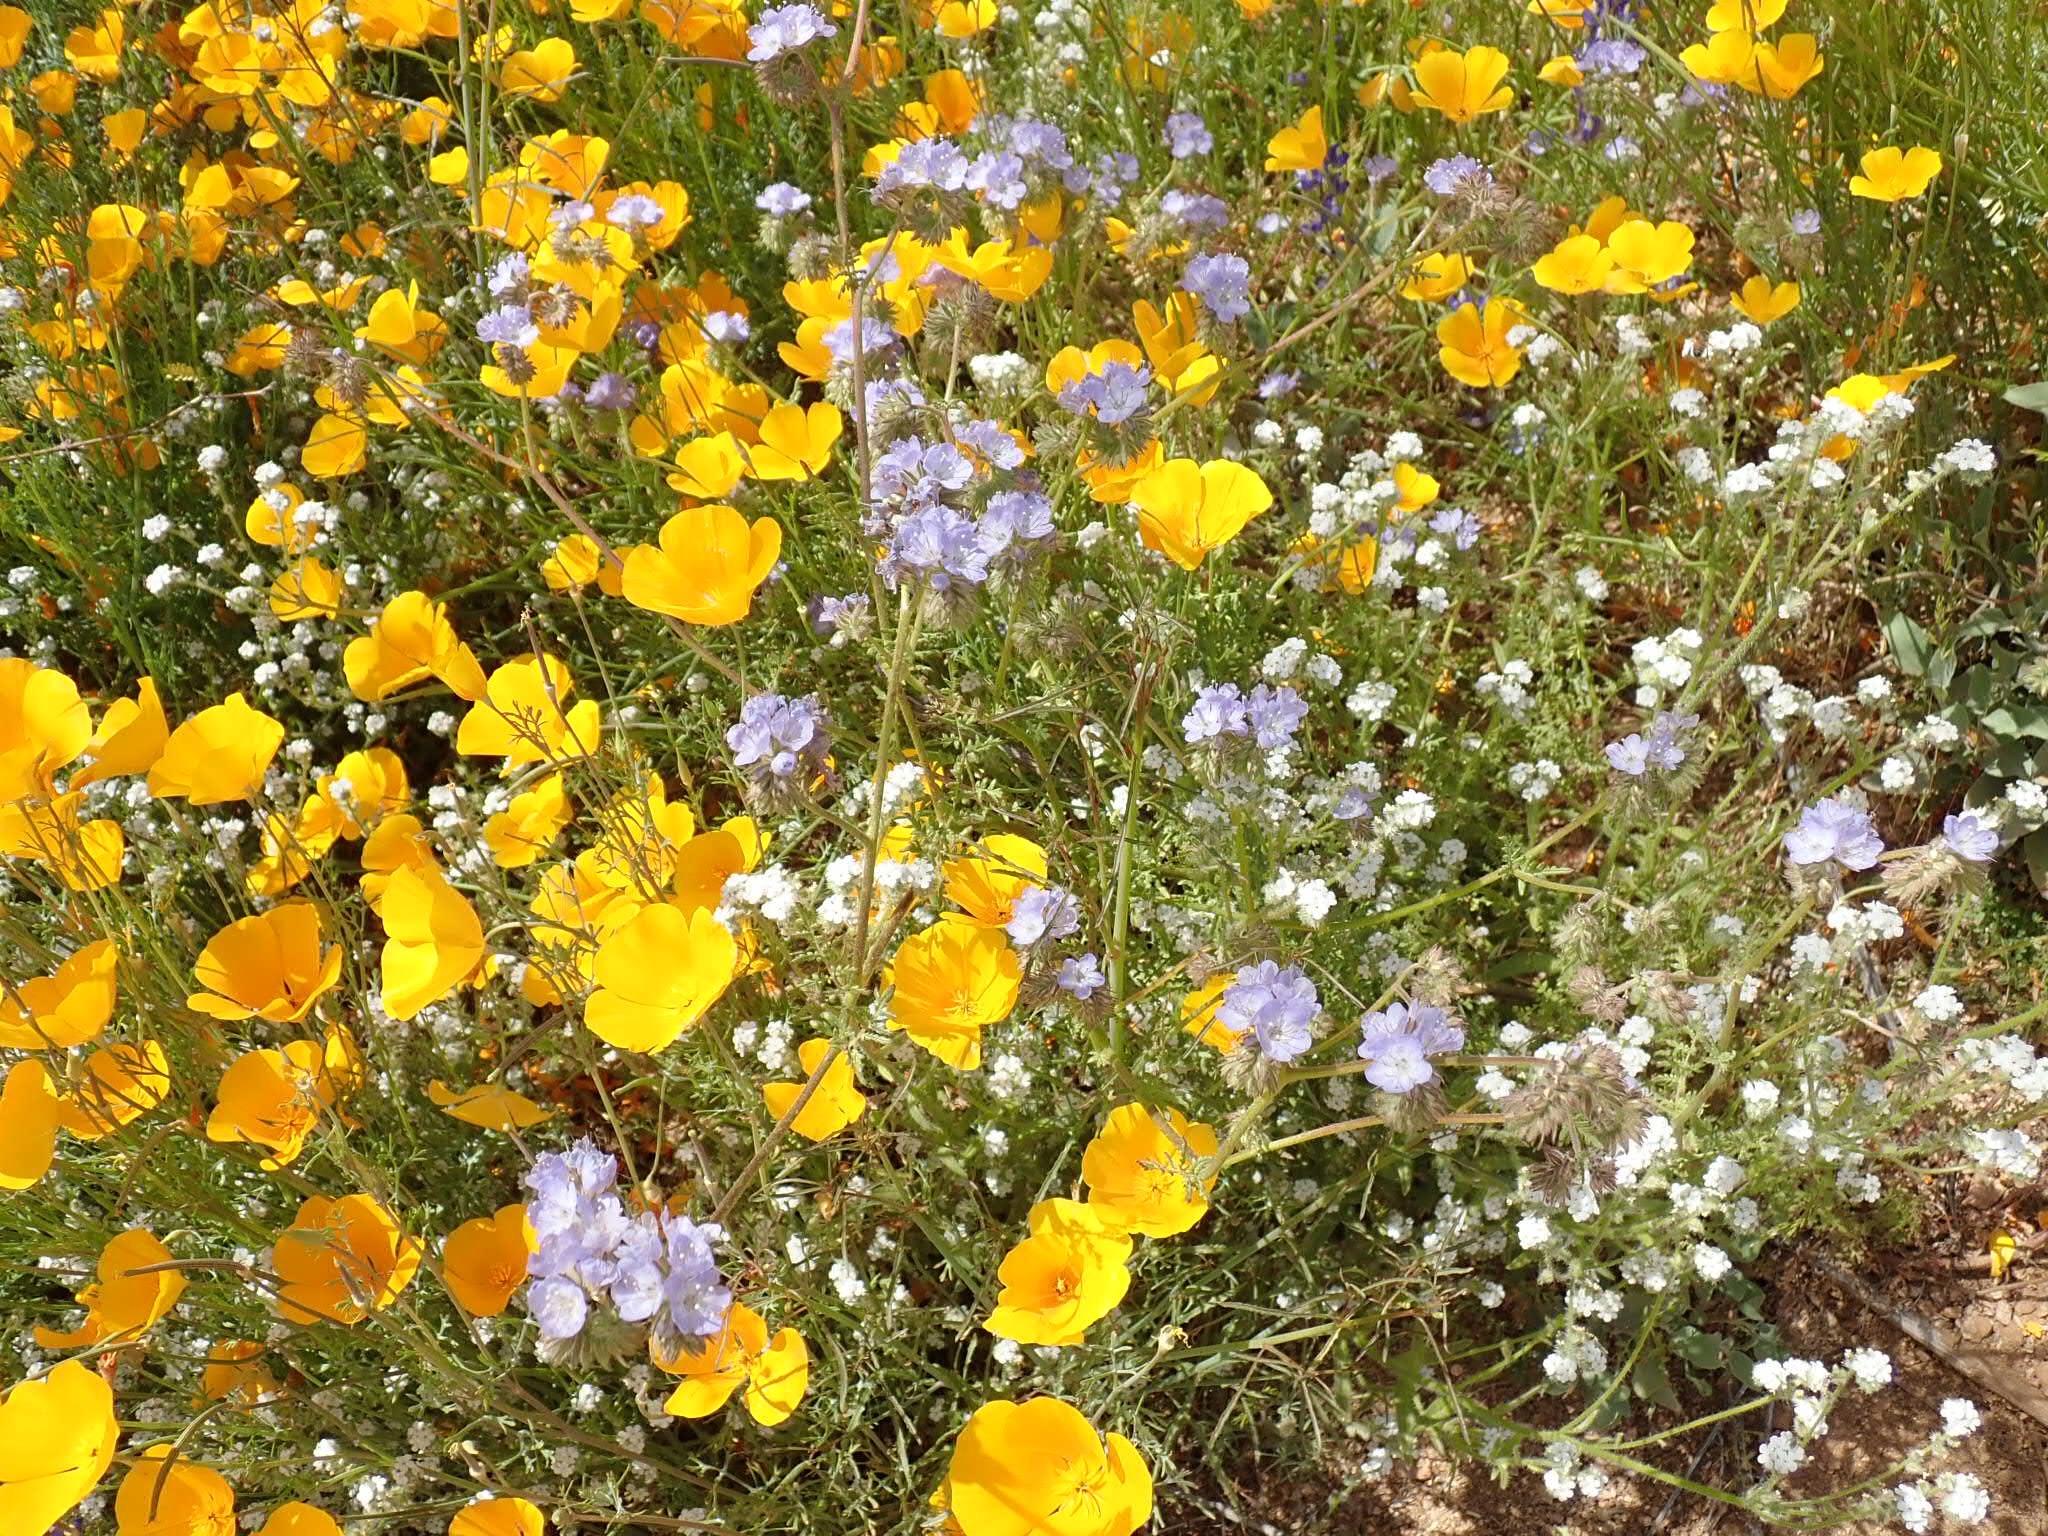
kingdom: Plantae
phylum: Tracheophyta
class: Magnoliopsida
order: Ranunculales
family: Papaveraceae
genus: Eschscholzia
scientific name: Eschscholzia californica
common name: California poppy
